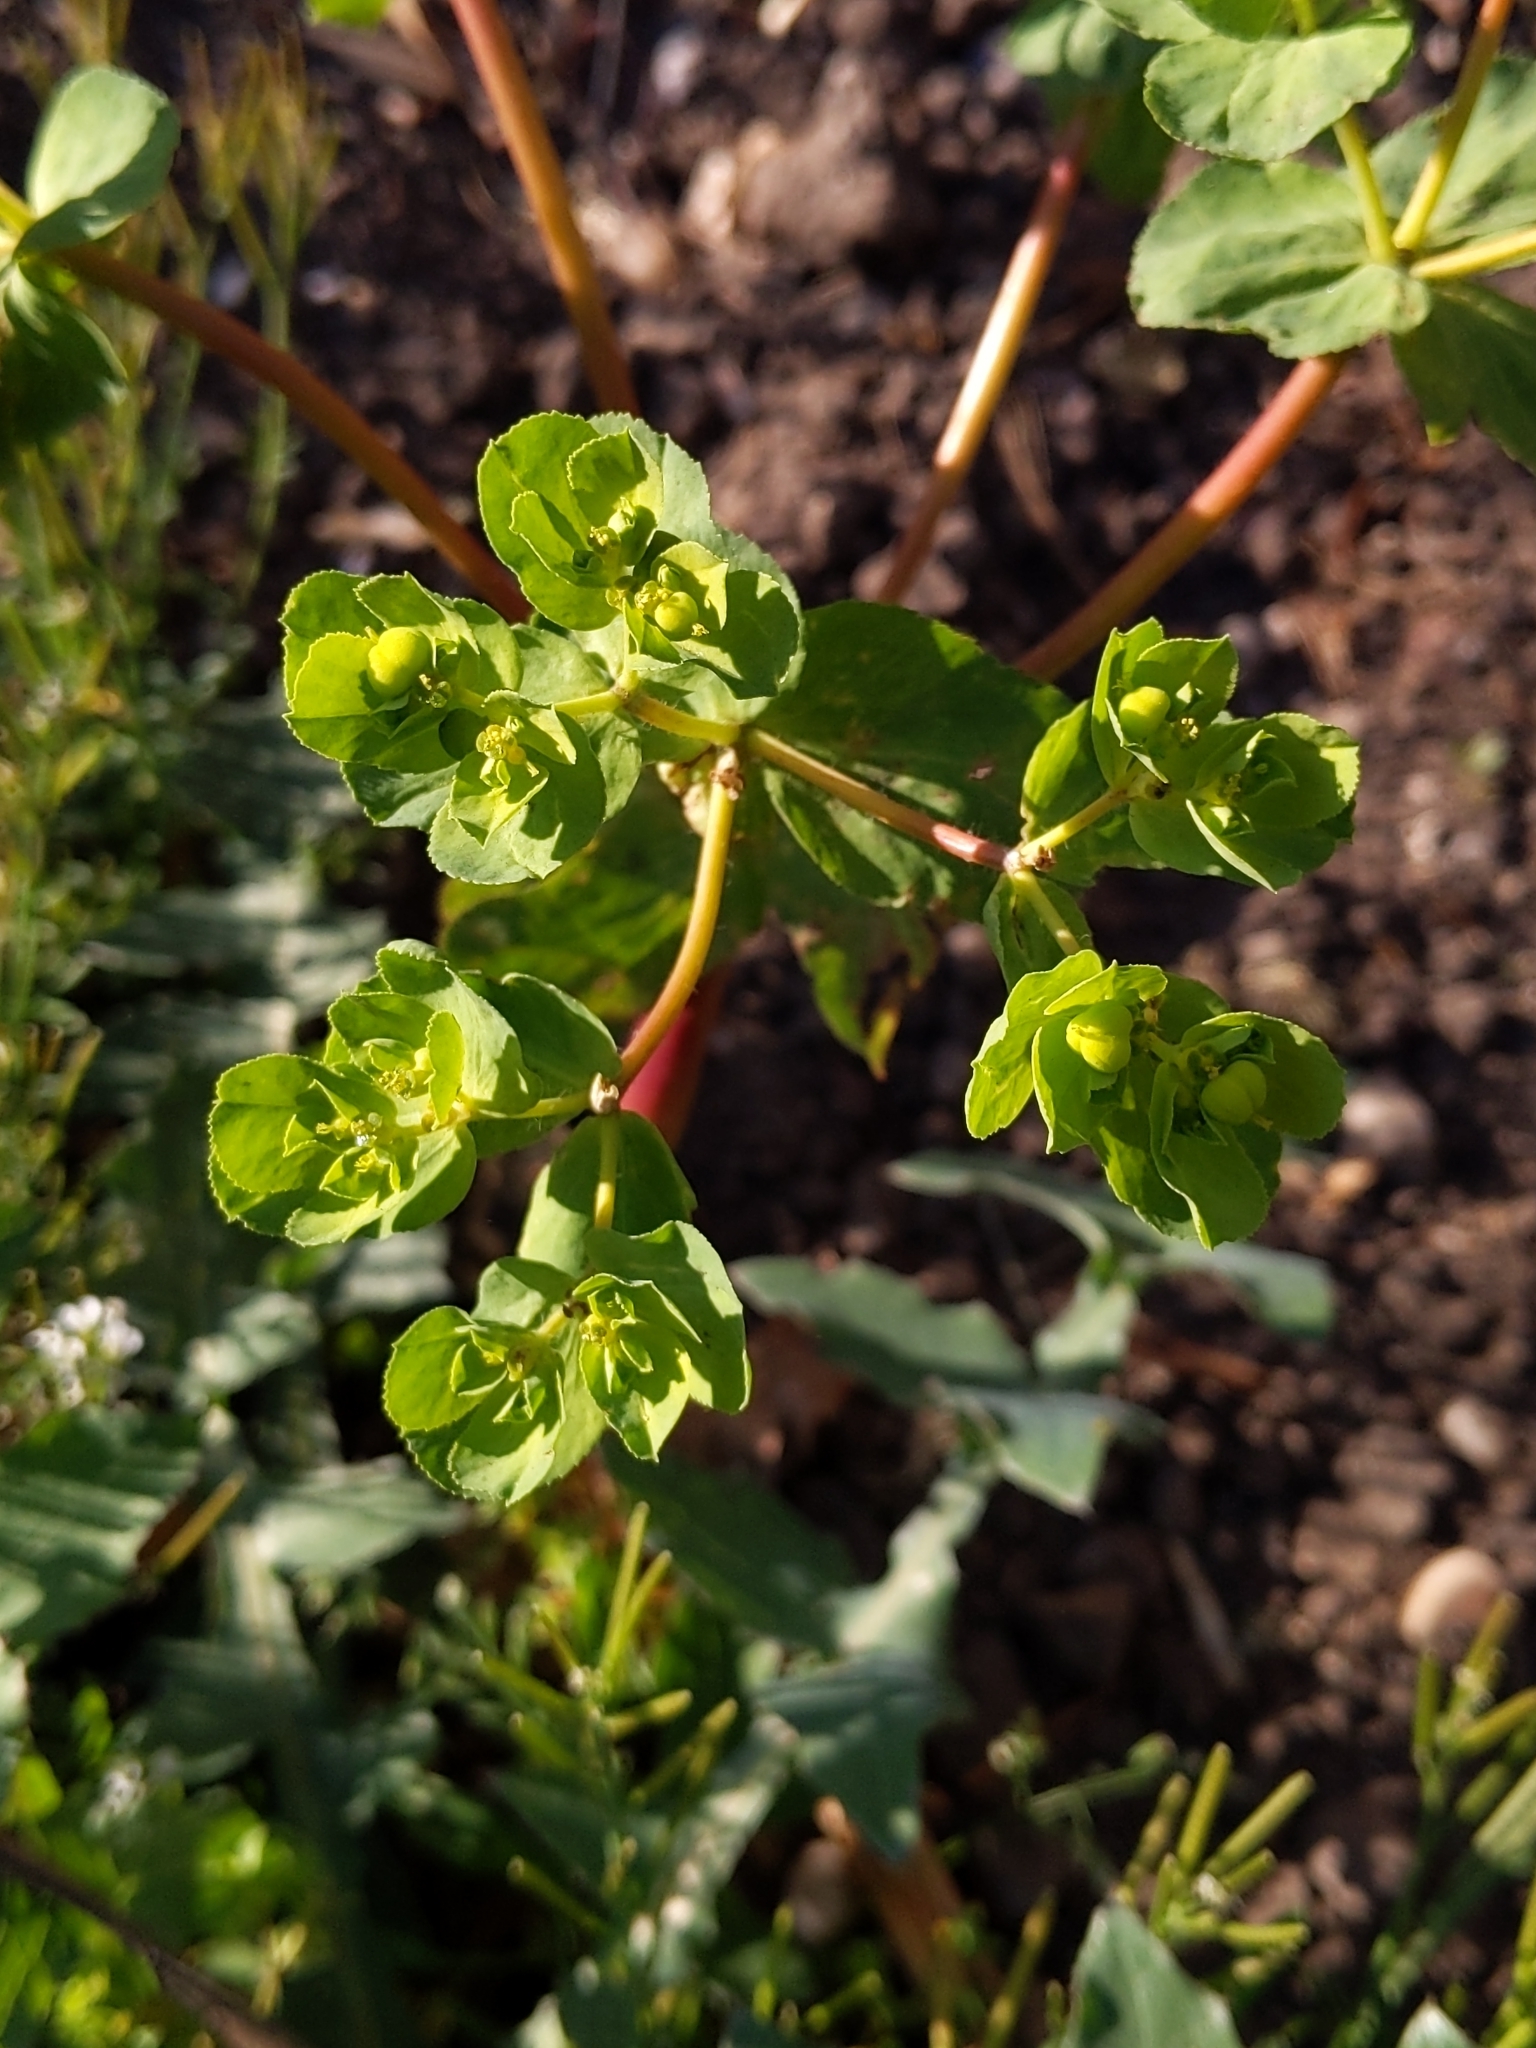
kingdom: Plantae
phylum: Tracheophyta
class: Magnoliopsida
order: Malpighiales
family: Euphorbiaceae
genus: Euphorbia
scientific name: Euphorbia helioscopia
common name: Sun spurge
